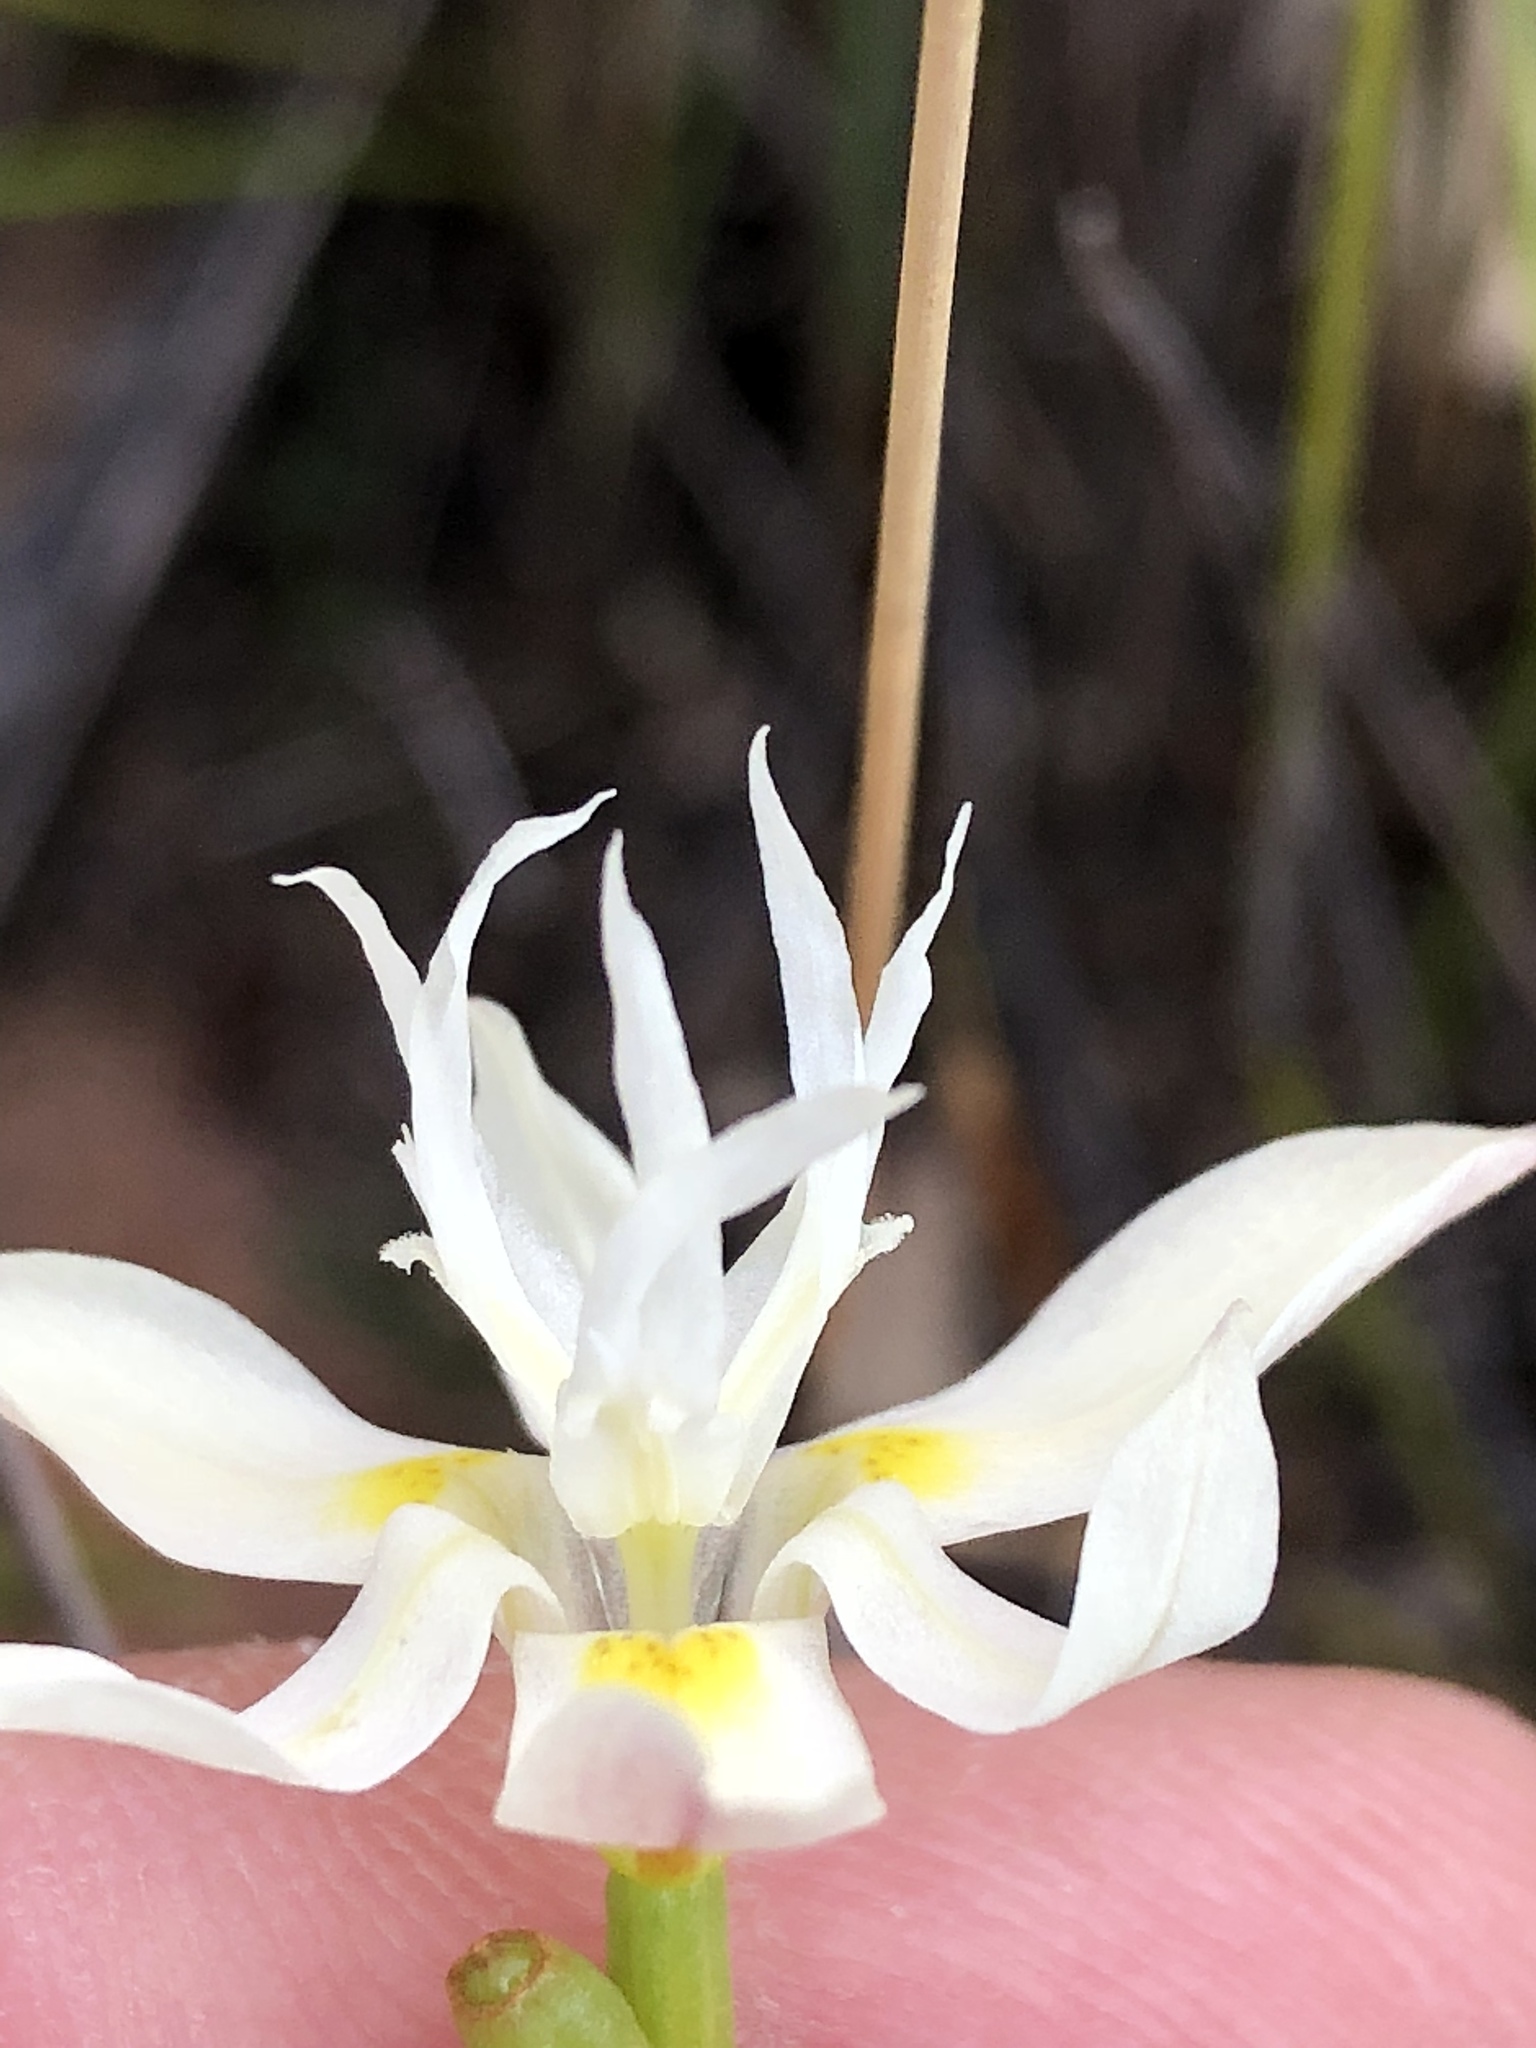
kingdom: Plantae
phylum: Tracheophyta
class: Liliopsida
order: Asparagales
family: Iridaceae
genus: Moraea
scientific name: Moraea viscaria
